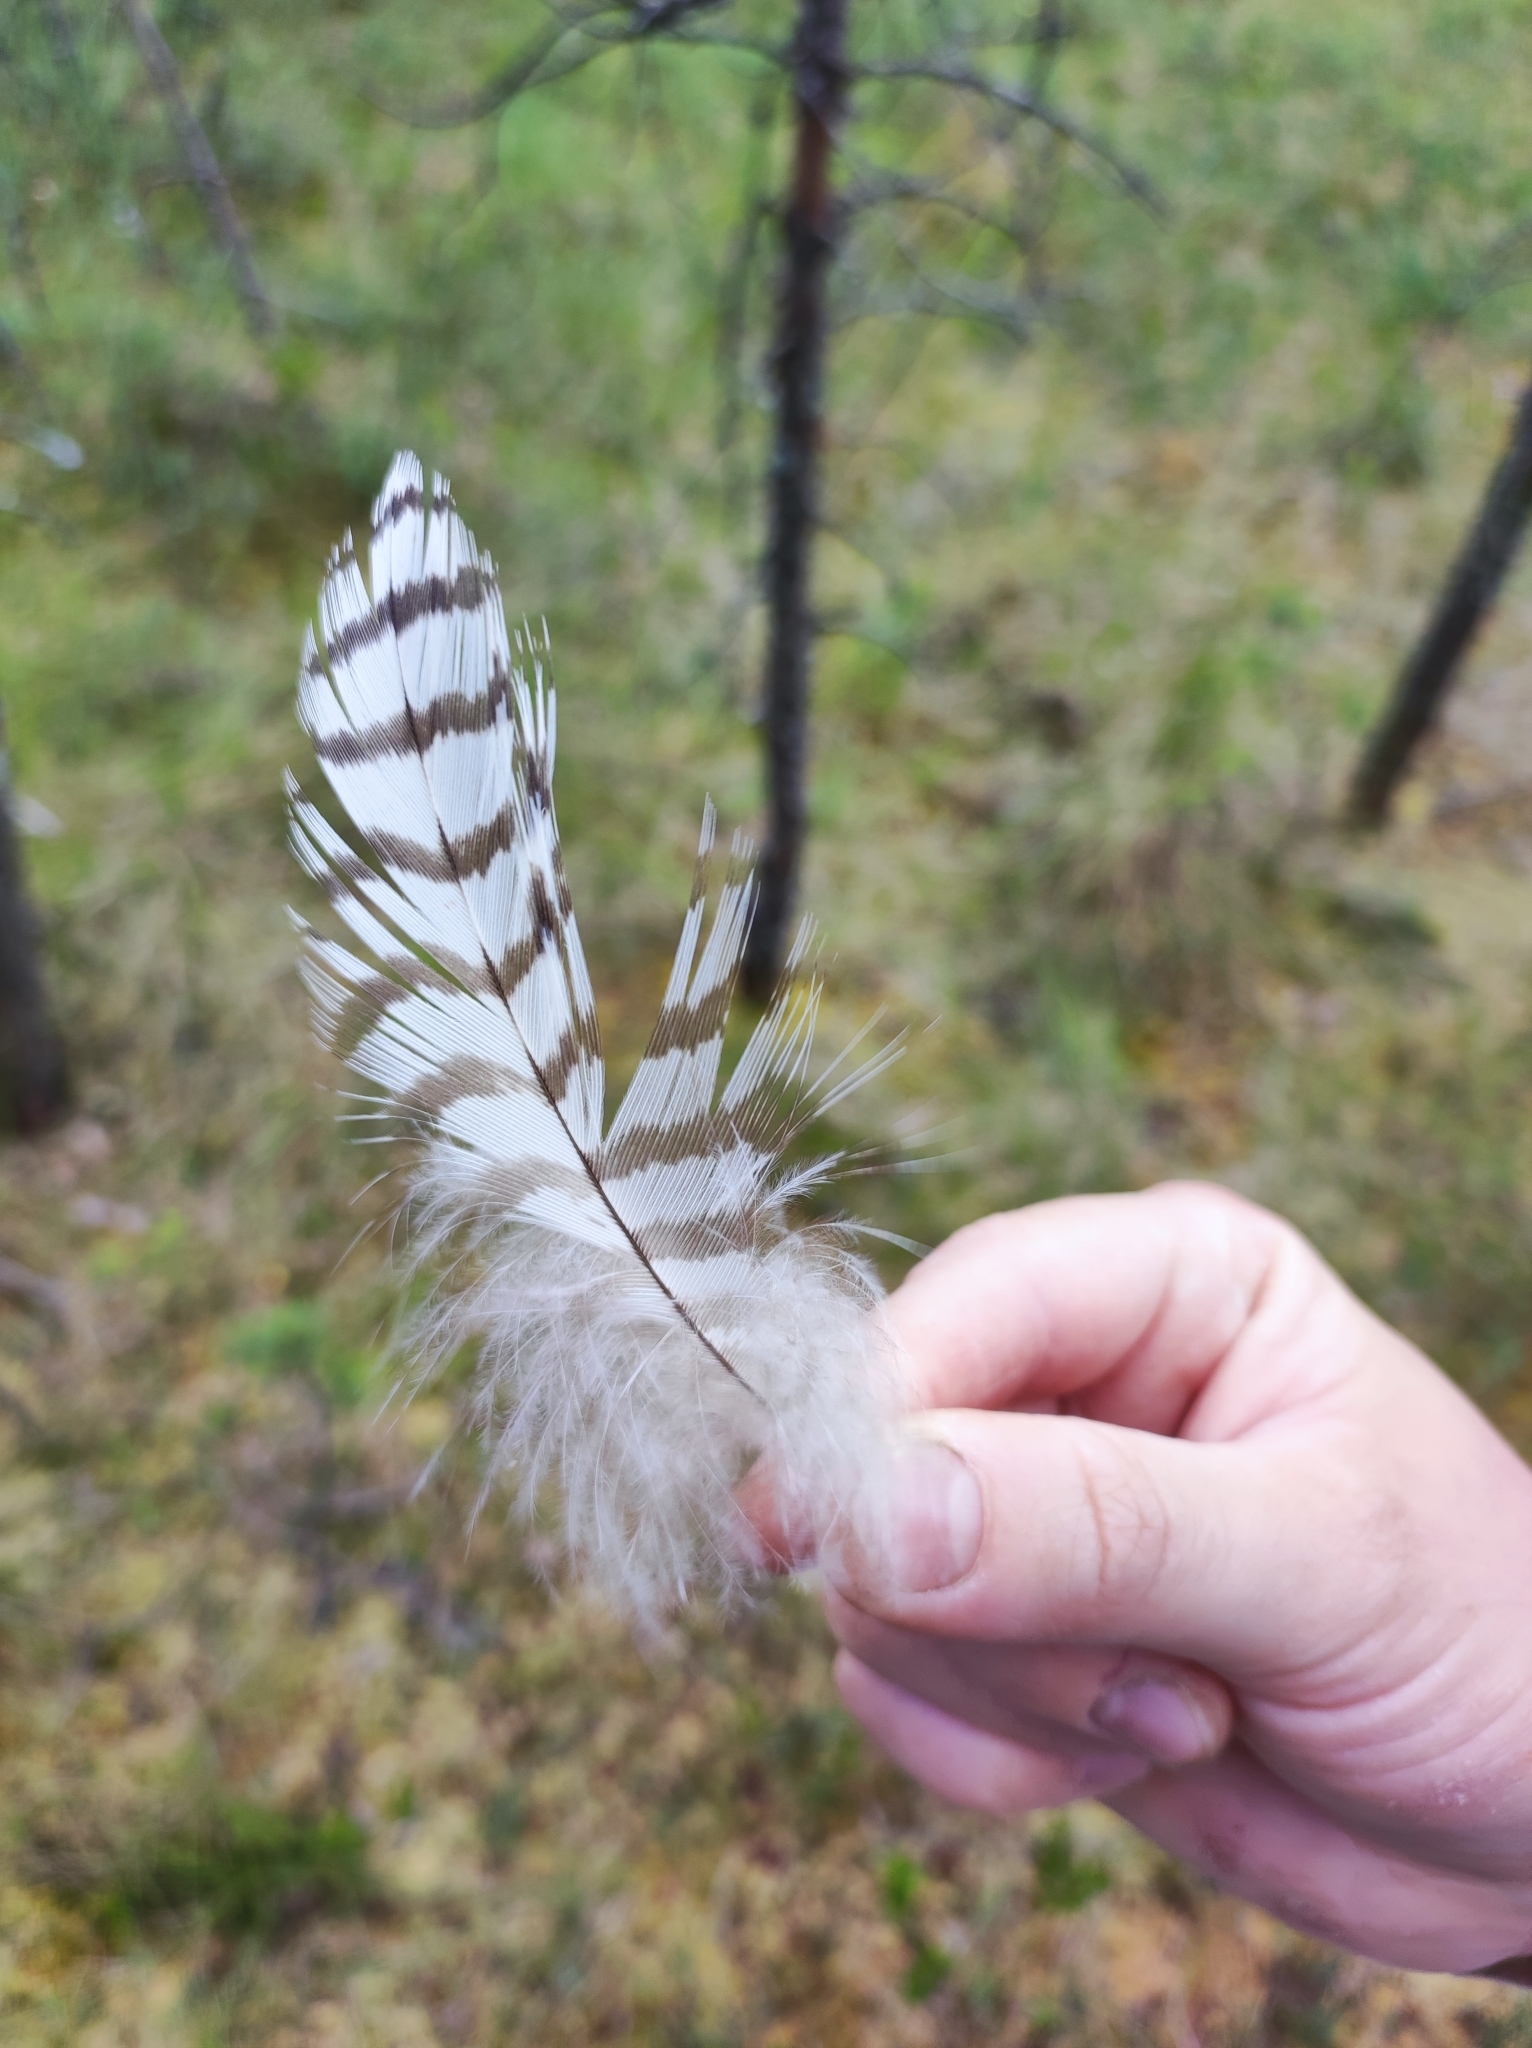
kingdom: Animalia
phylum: Chordata
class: Aves
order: Accipitriformes
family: Accipitridae
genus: Accipiter
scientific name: Accipiter gentilis
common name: Northern goshawk
